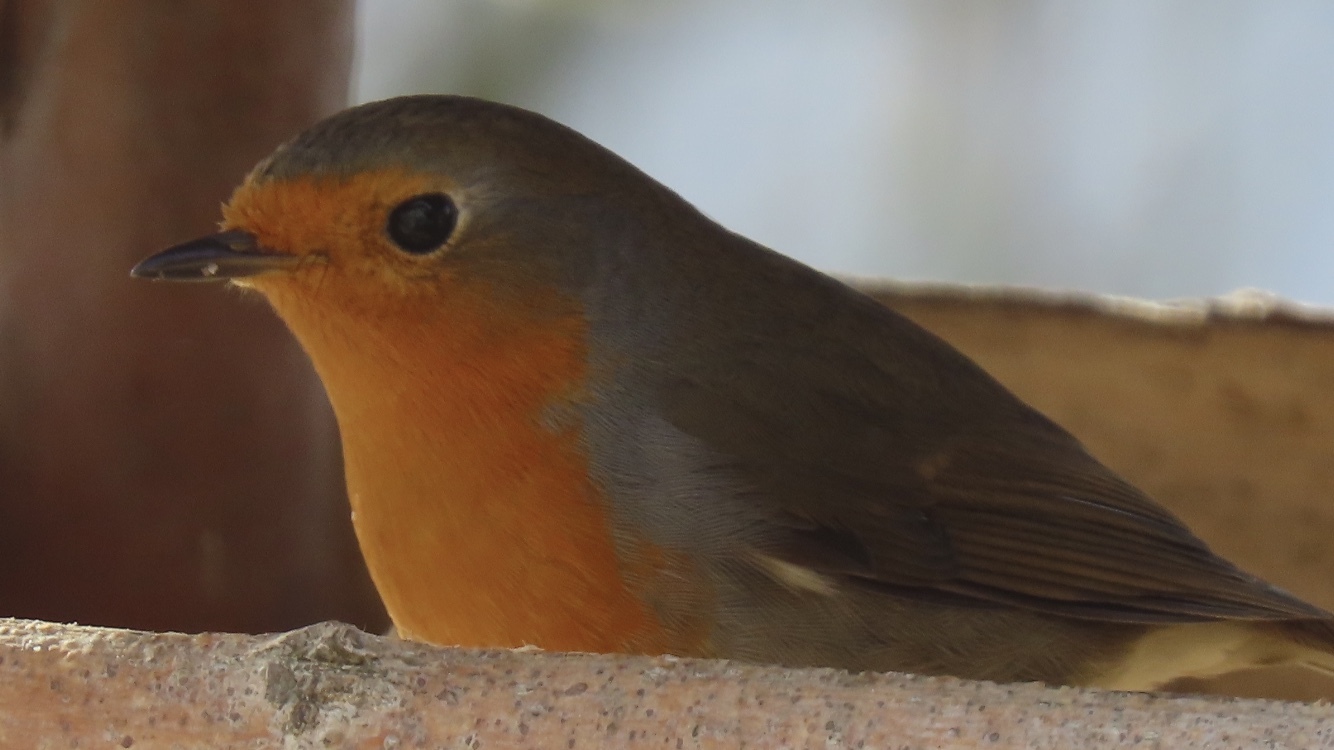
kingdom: Animalia
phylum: Chordata
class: Aves
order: Passeriformes
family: Muscicapidae
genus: Erithacus
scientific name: Erithacus rubecula
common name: European robin
